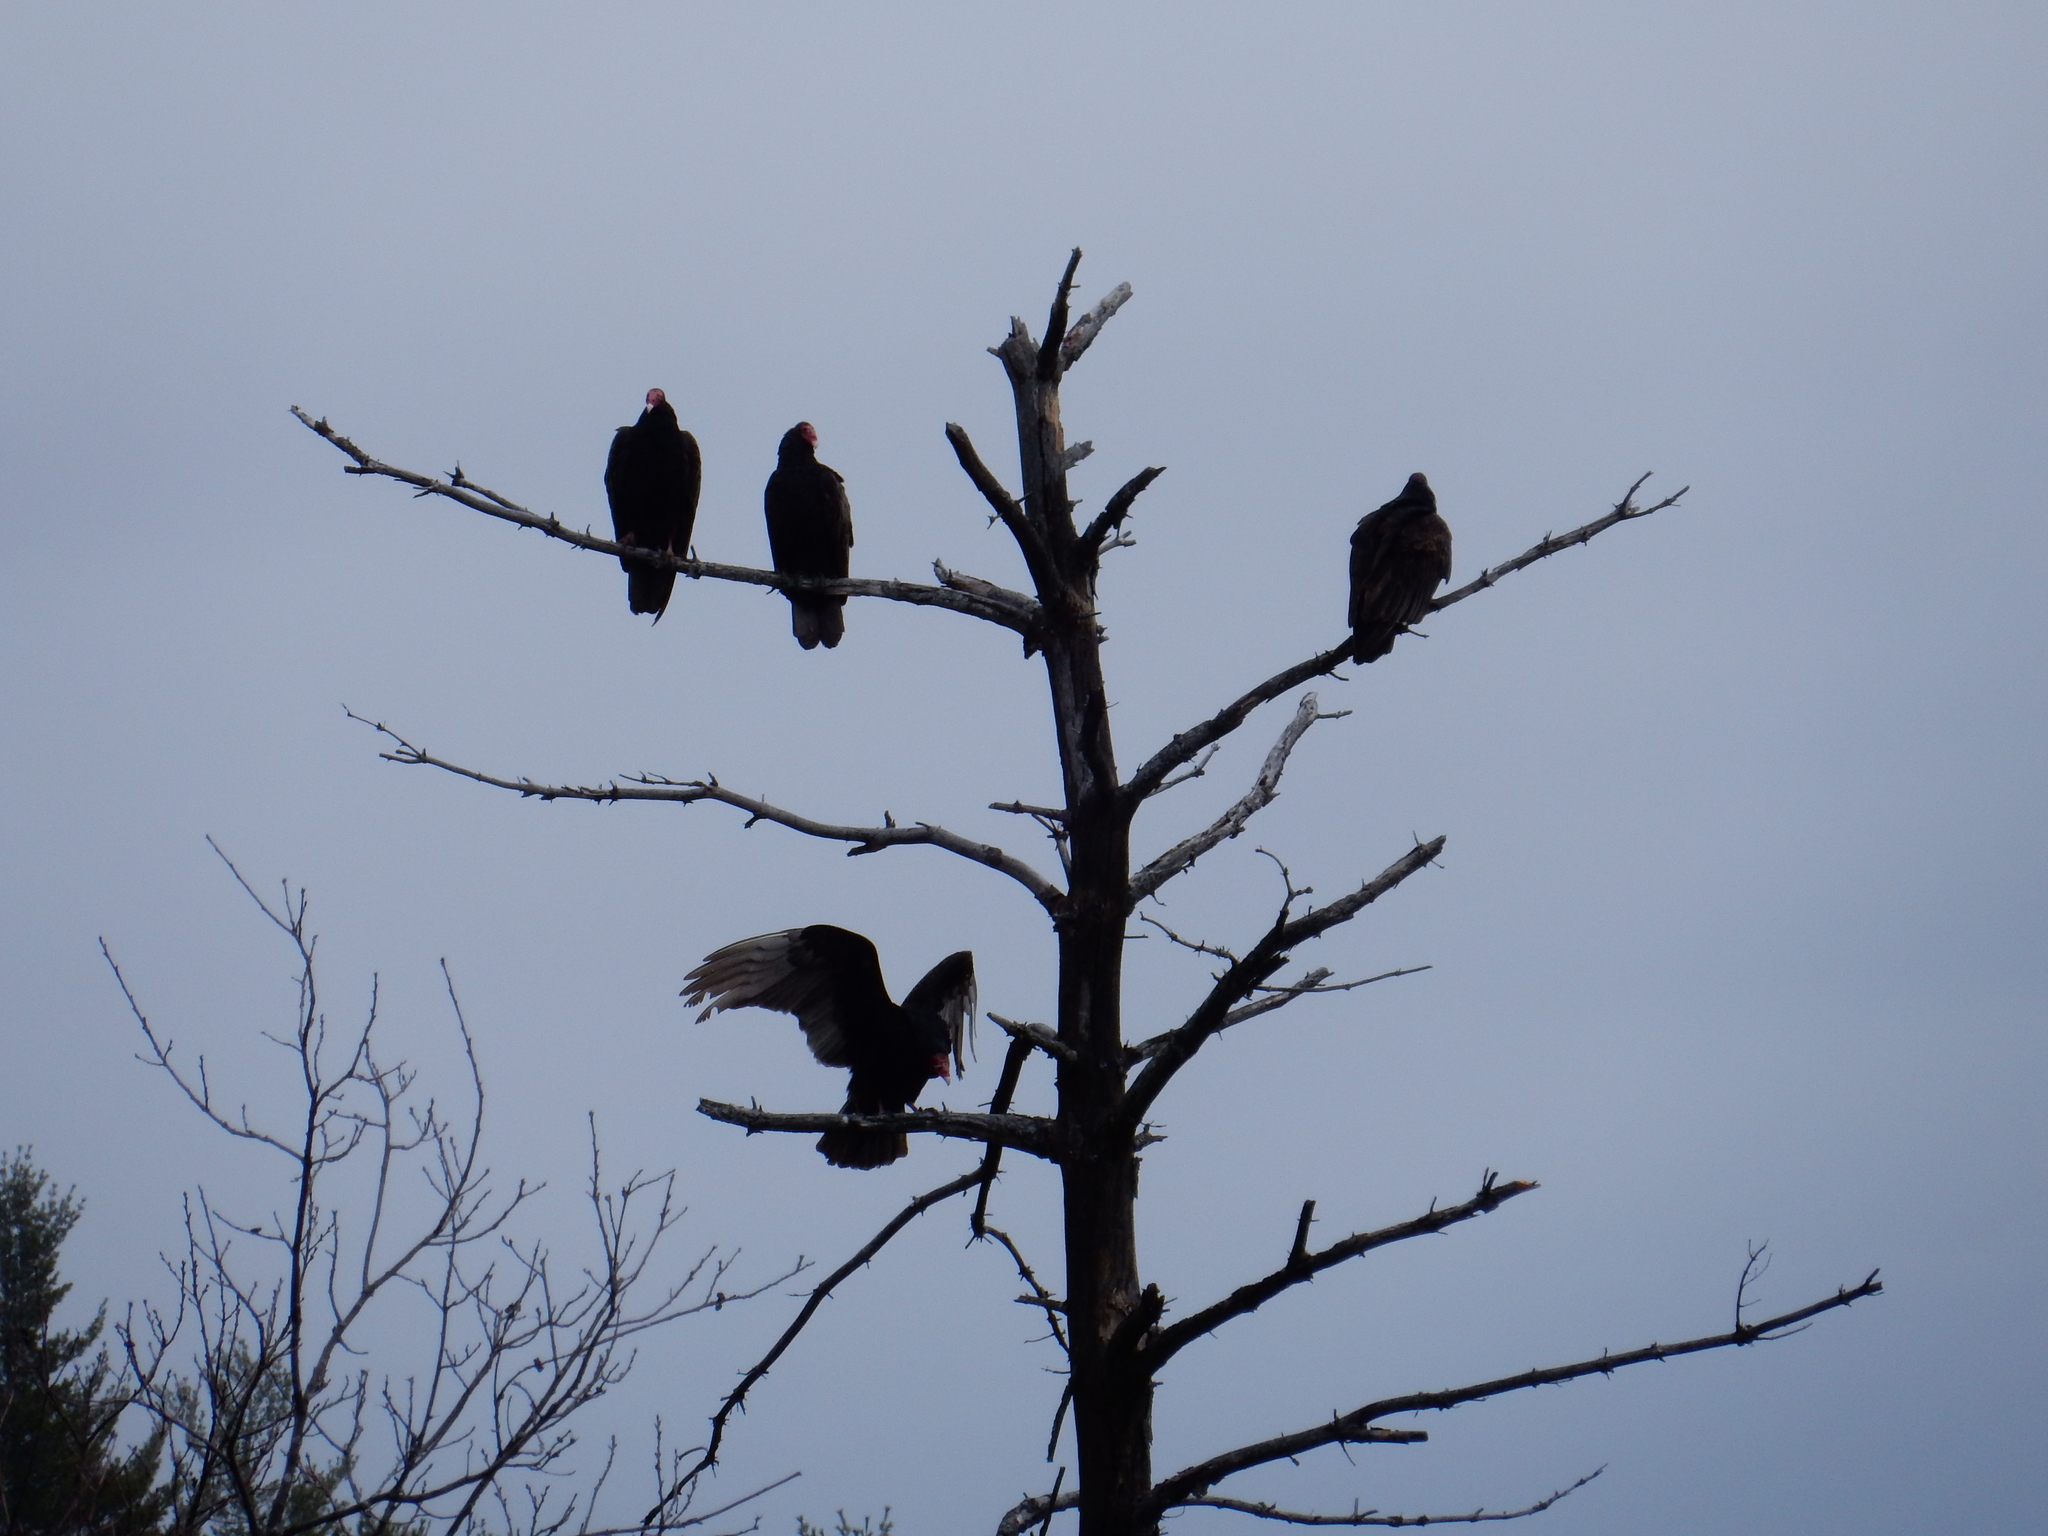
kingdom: Animalia
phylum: Chordata
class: Aves
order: Accipitriformes
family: Cathartidae
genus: Cathartes
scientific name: Cathartes aura
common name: Turkey vulture
